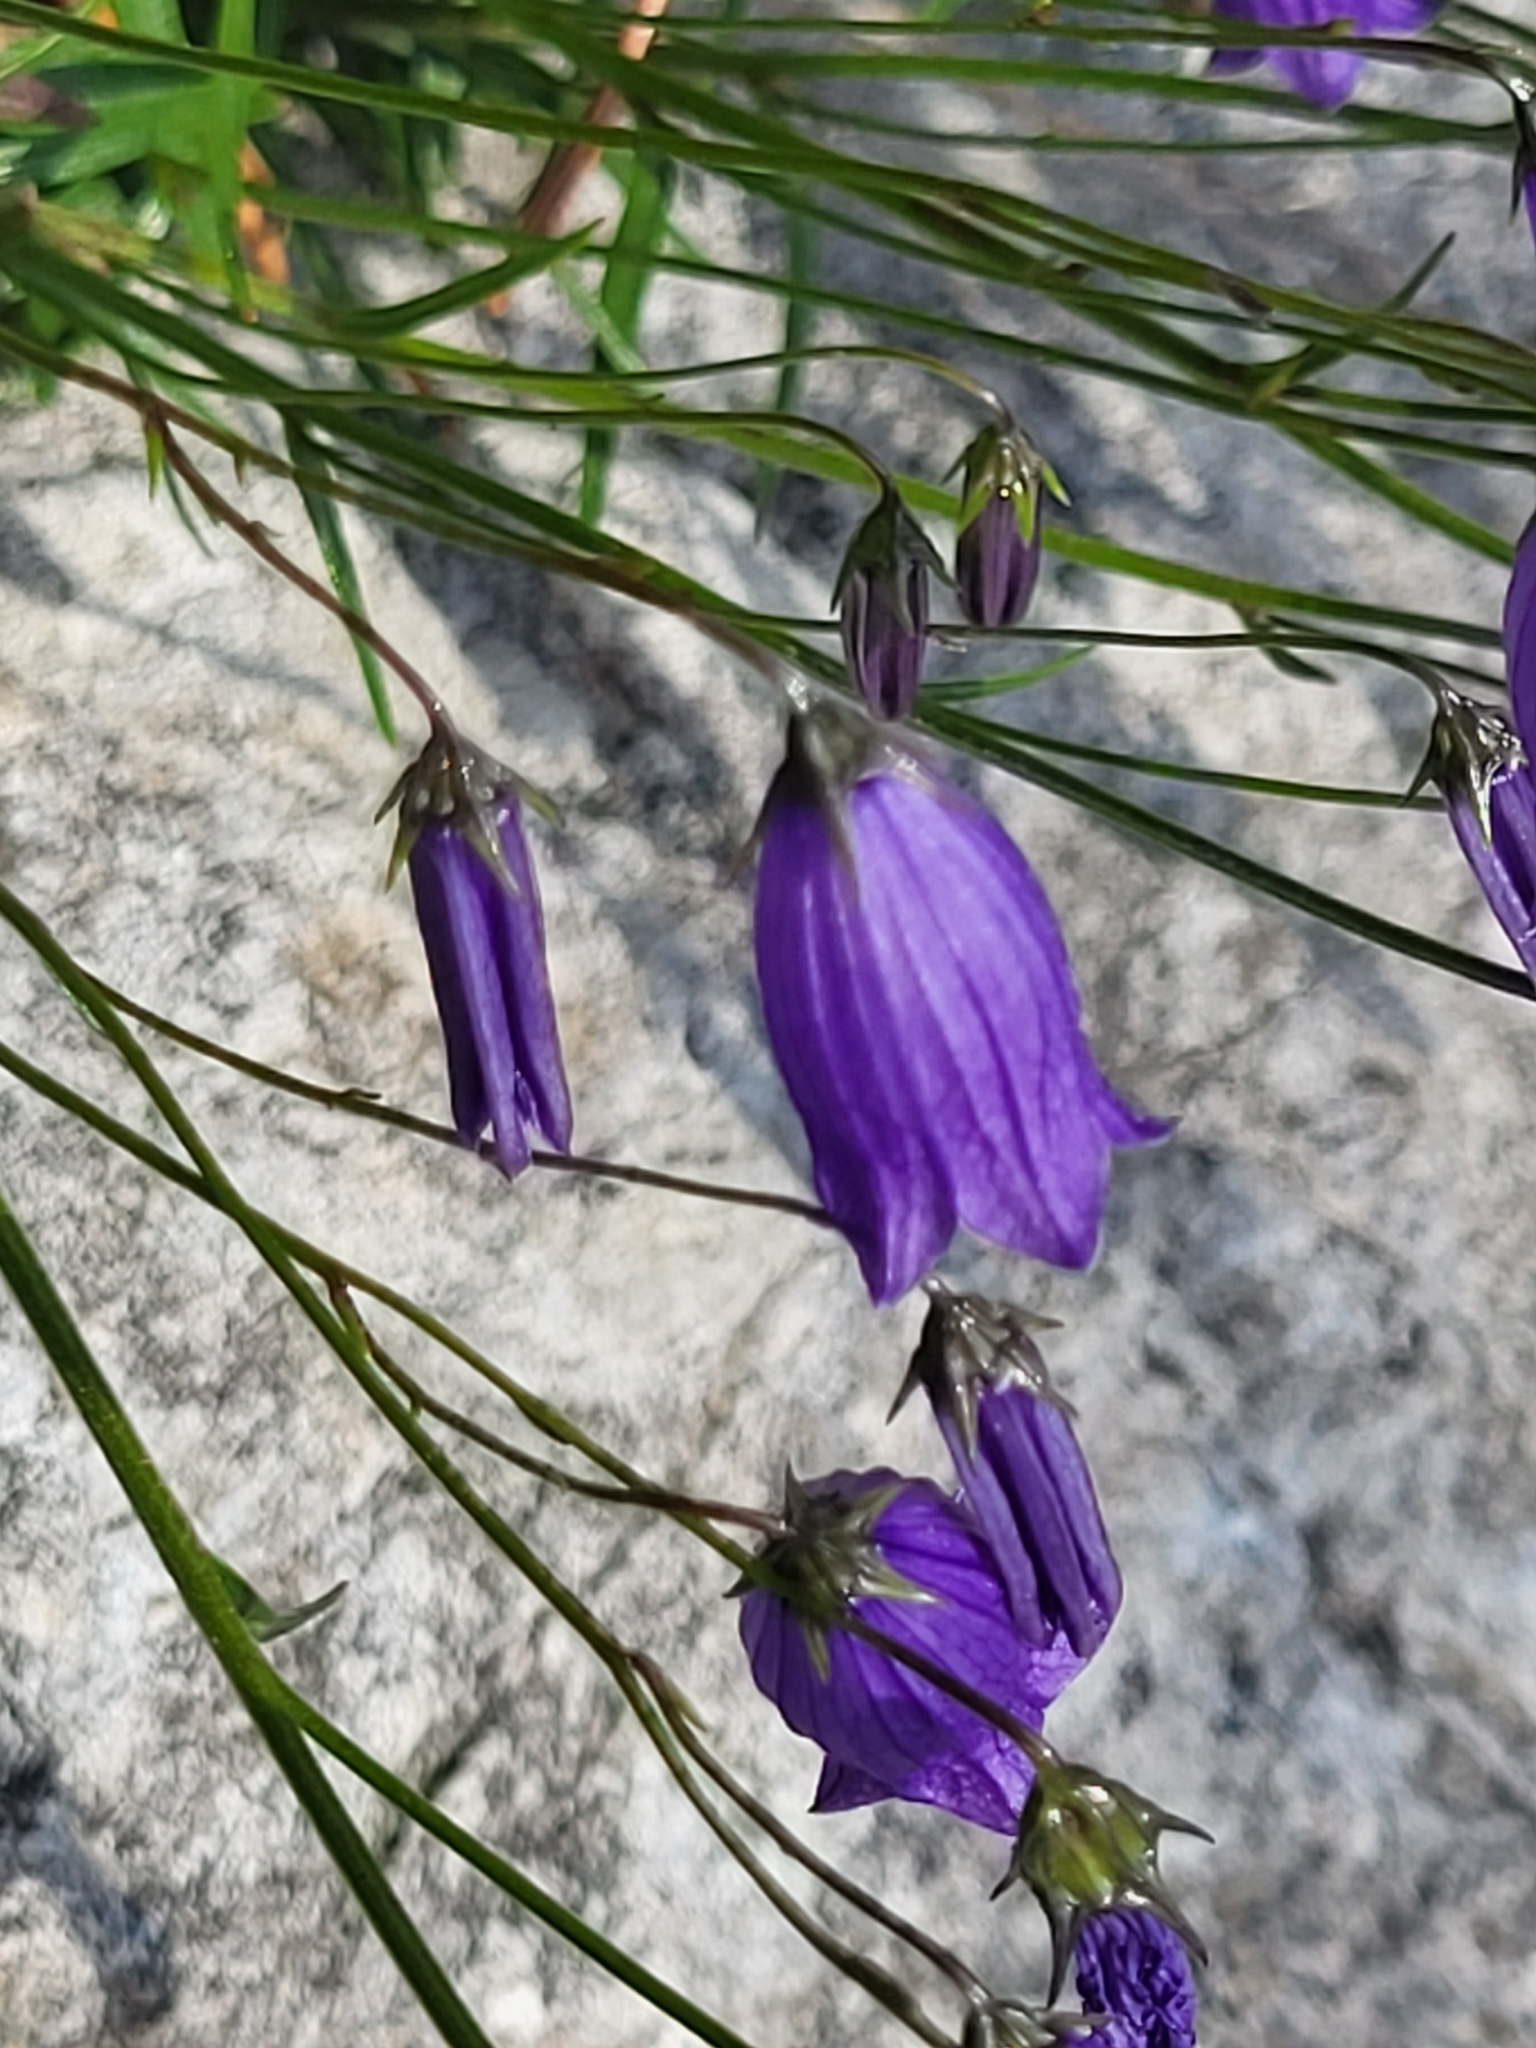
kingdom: Plantae
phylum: Tracheophyta
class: Magnoliopsida
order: Asterales
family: Campanulaceae
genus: Campanula
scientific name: Campanula cespitosa
